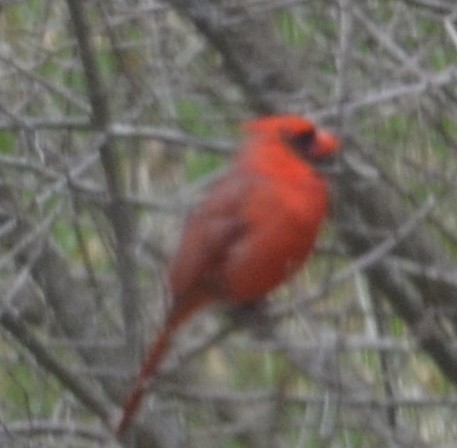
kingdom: Animalia
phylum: Chordata
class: Aves
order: Passeriformes
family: Cardinalidae
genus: Cardinalis
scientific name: Cardinalis cardinalis
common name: Northern cardinal
